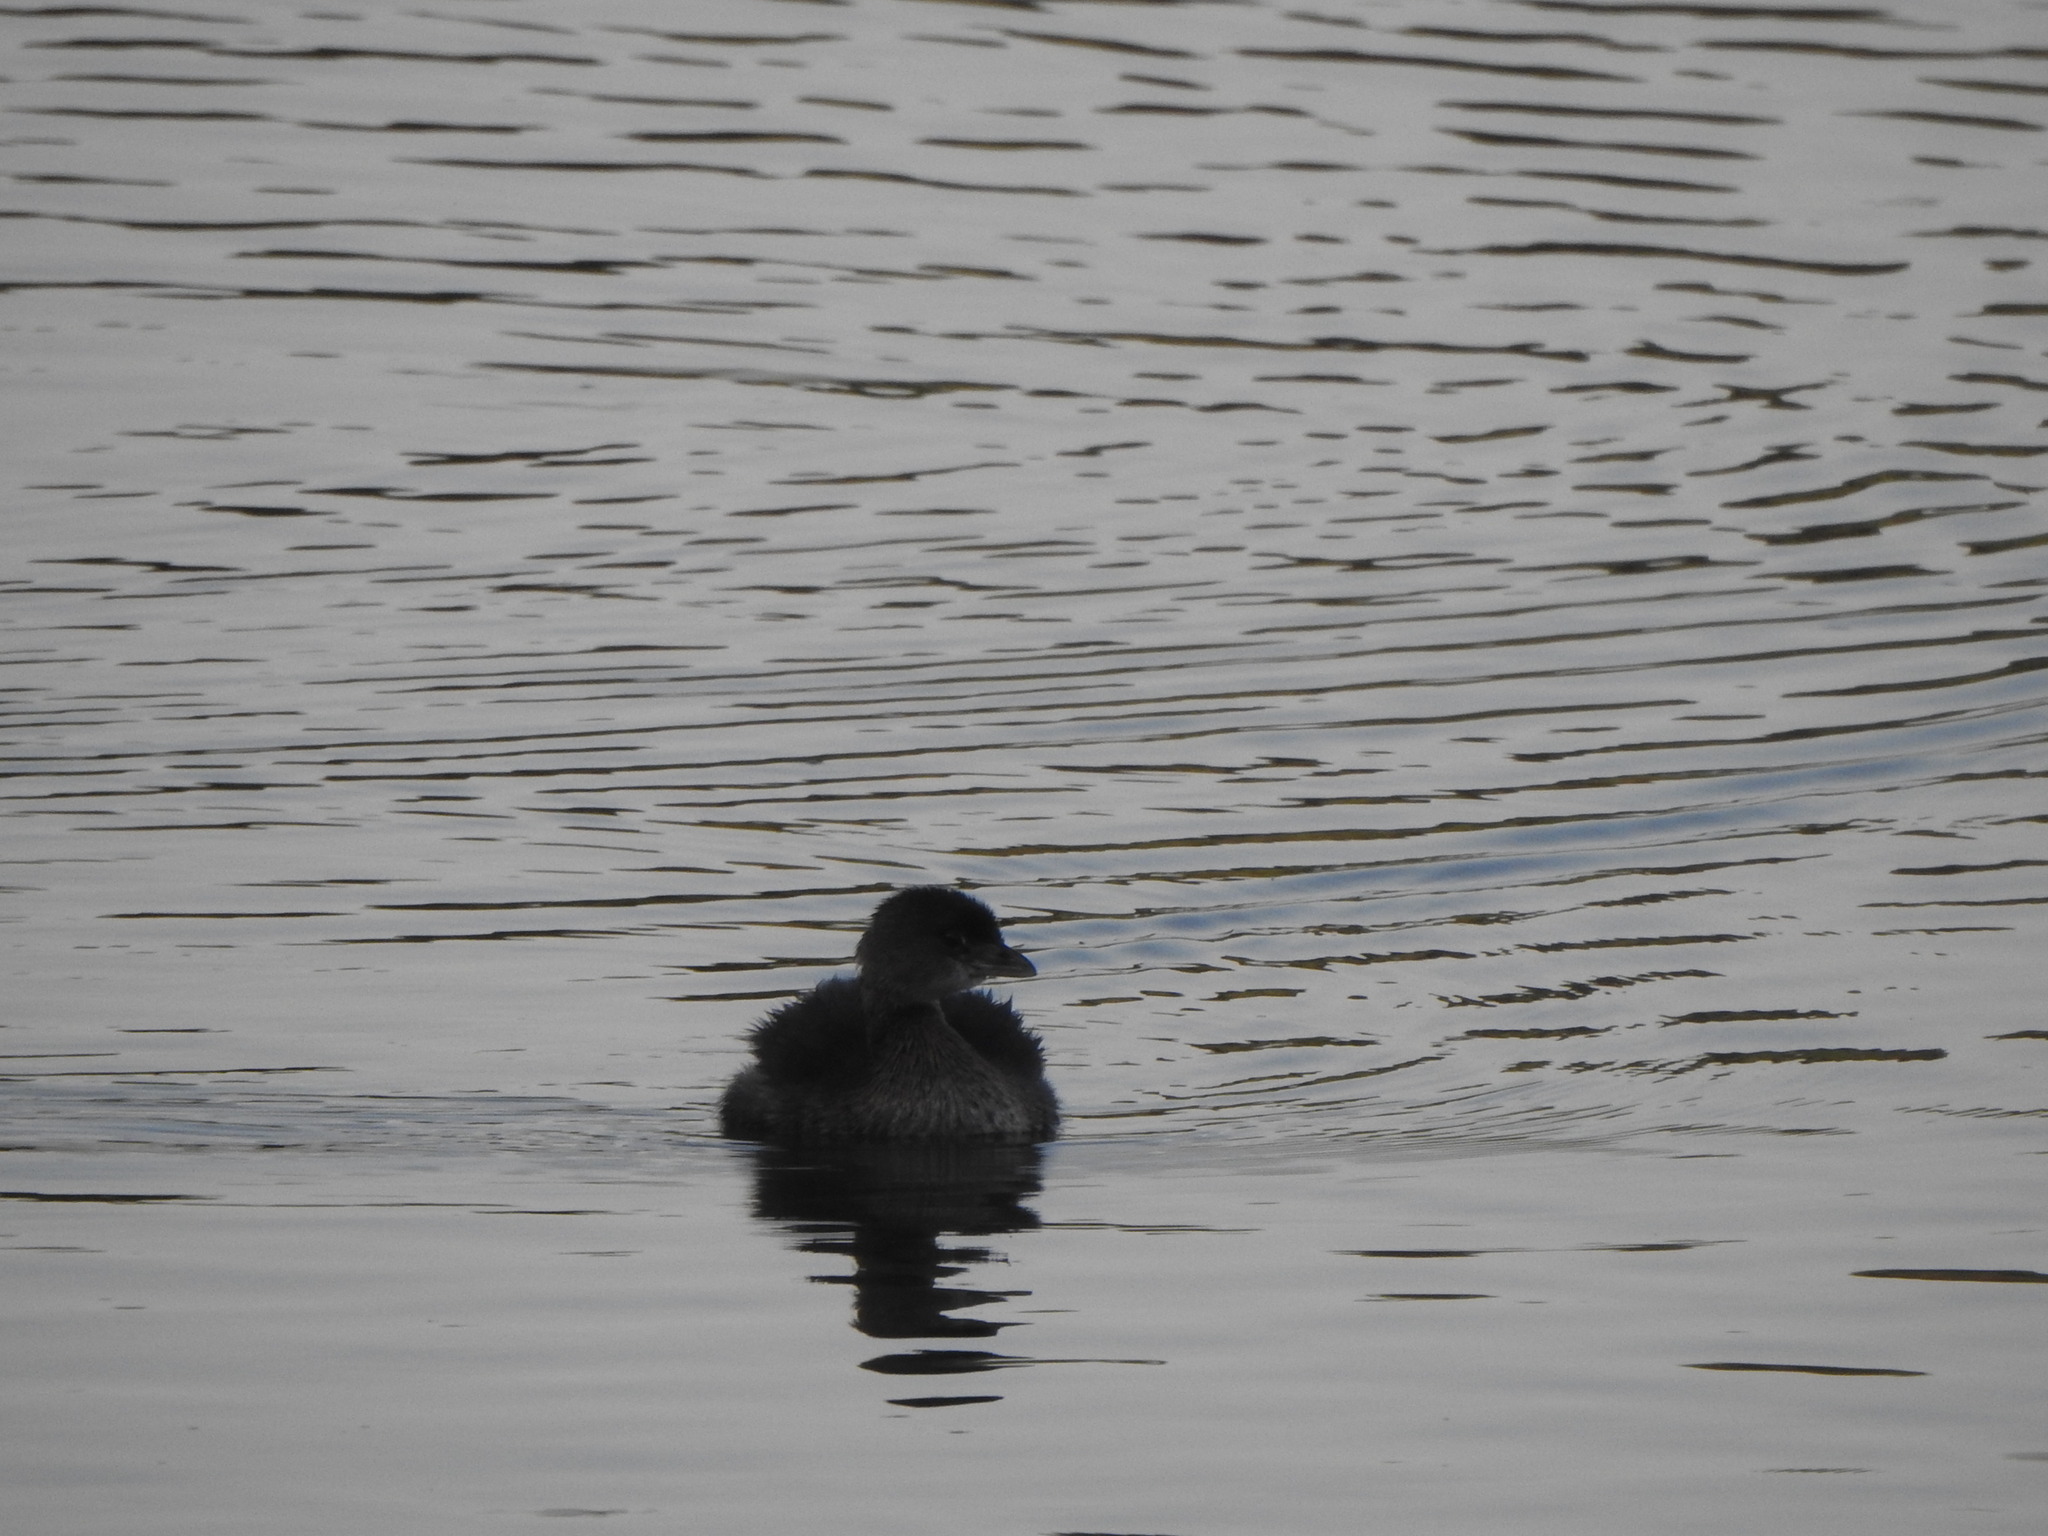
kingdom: Animalia
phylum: Chordata
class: Aves
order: Podicipediformes
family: Podicipedidae
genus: Podilymbus
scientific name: Podilymbus podiceps
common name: Pied-billed grebe
